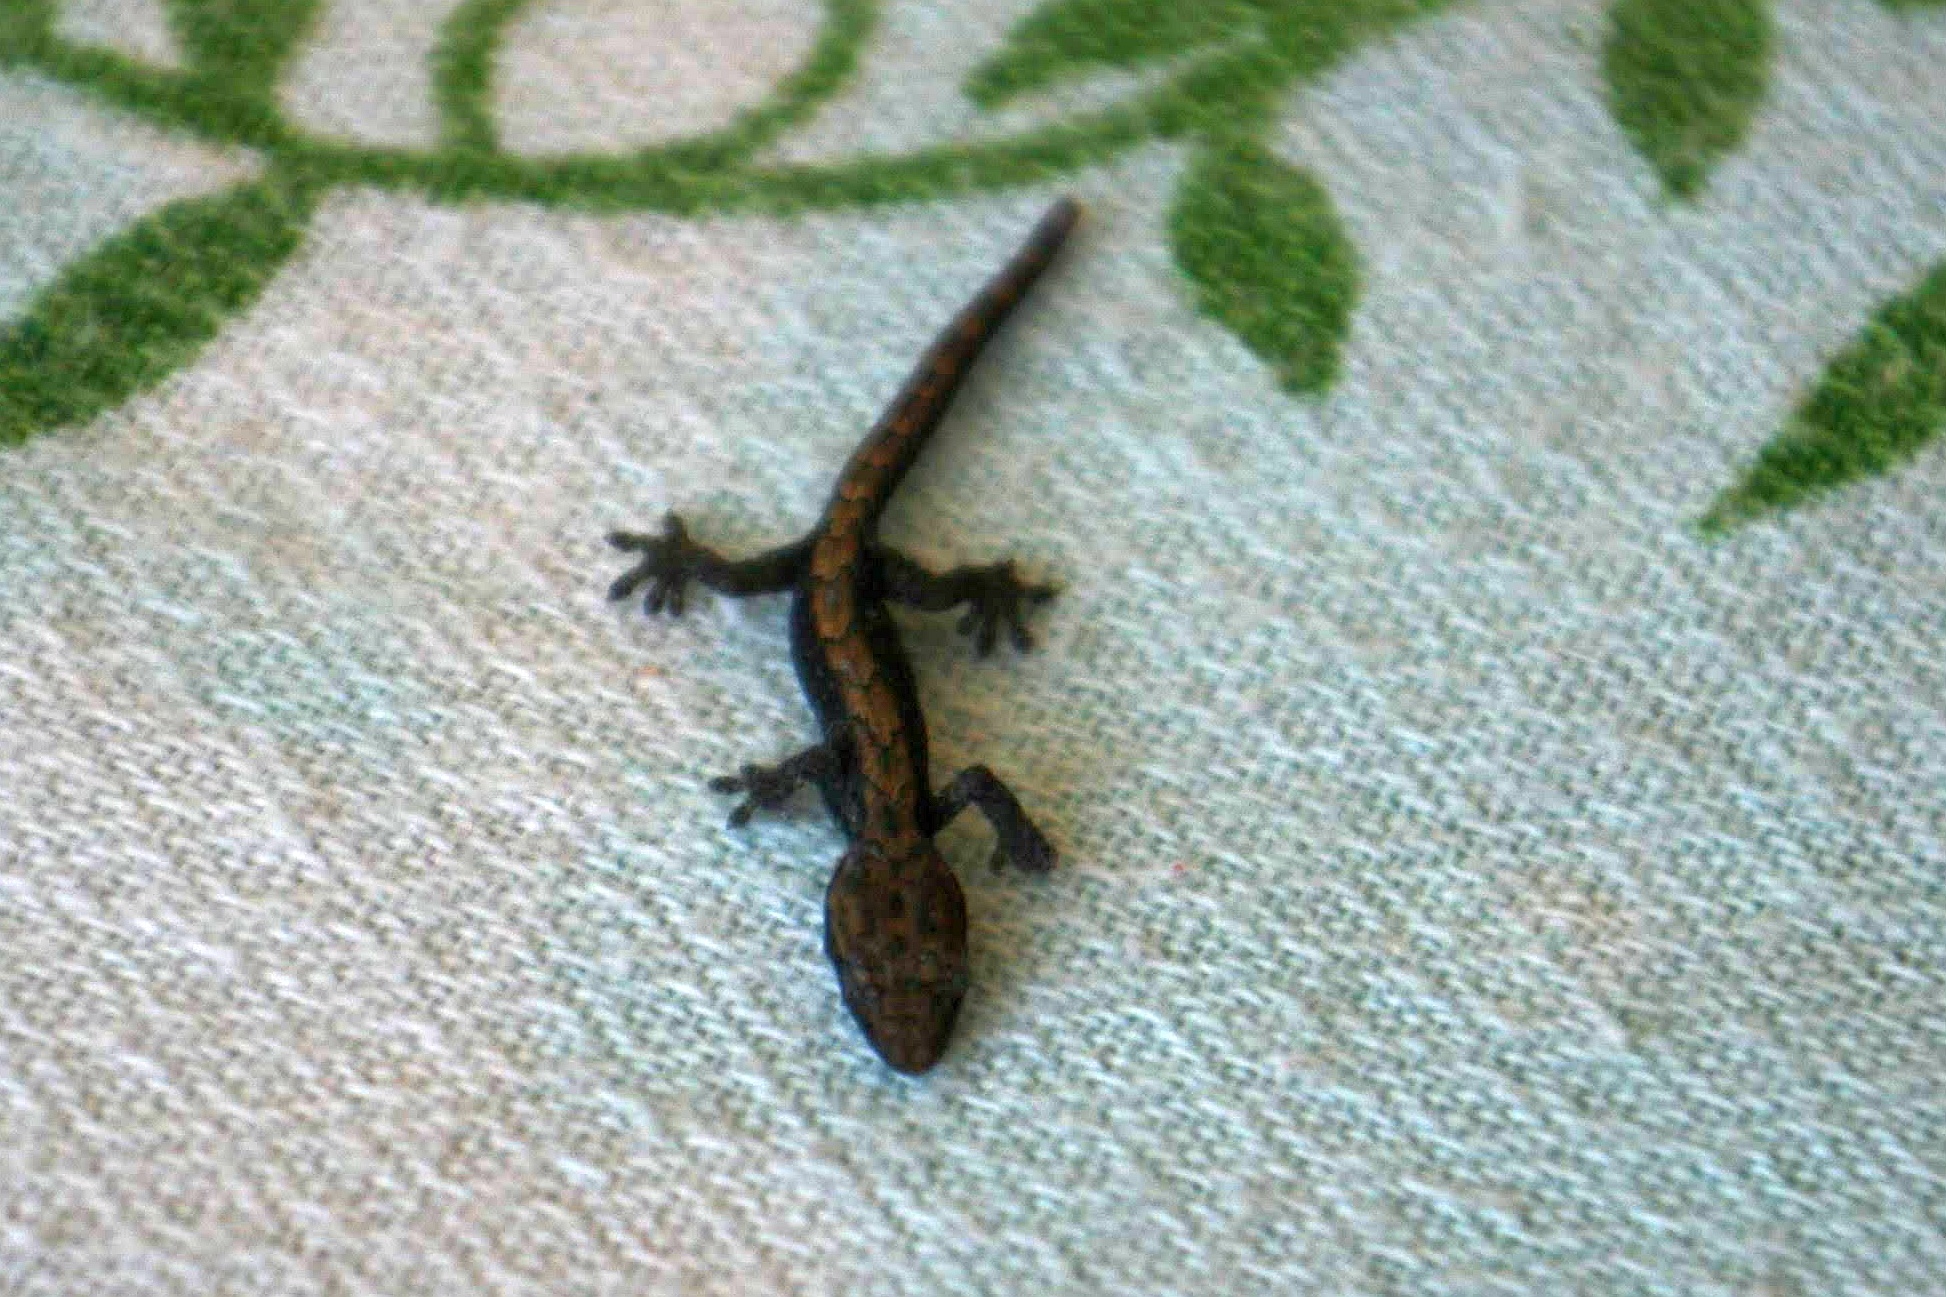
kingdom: Animalia
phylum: Chordata
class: Squamata
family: Gekkonidae
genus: Lepidodactylus
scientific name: Lepidodactylus lugubris
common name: Mourning gecko
